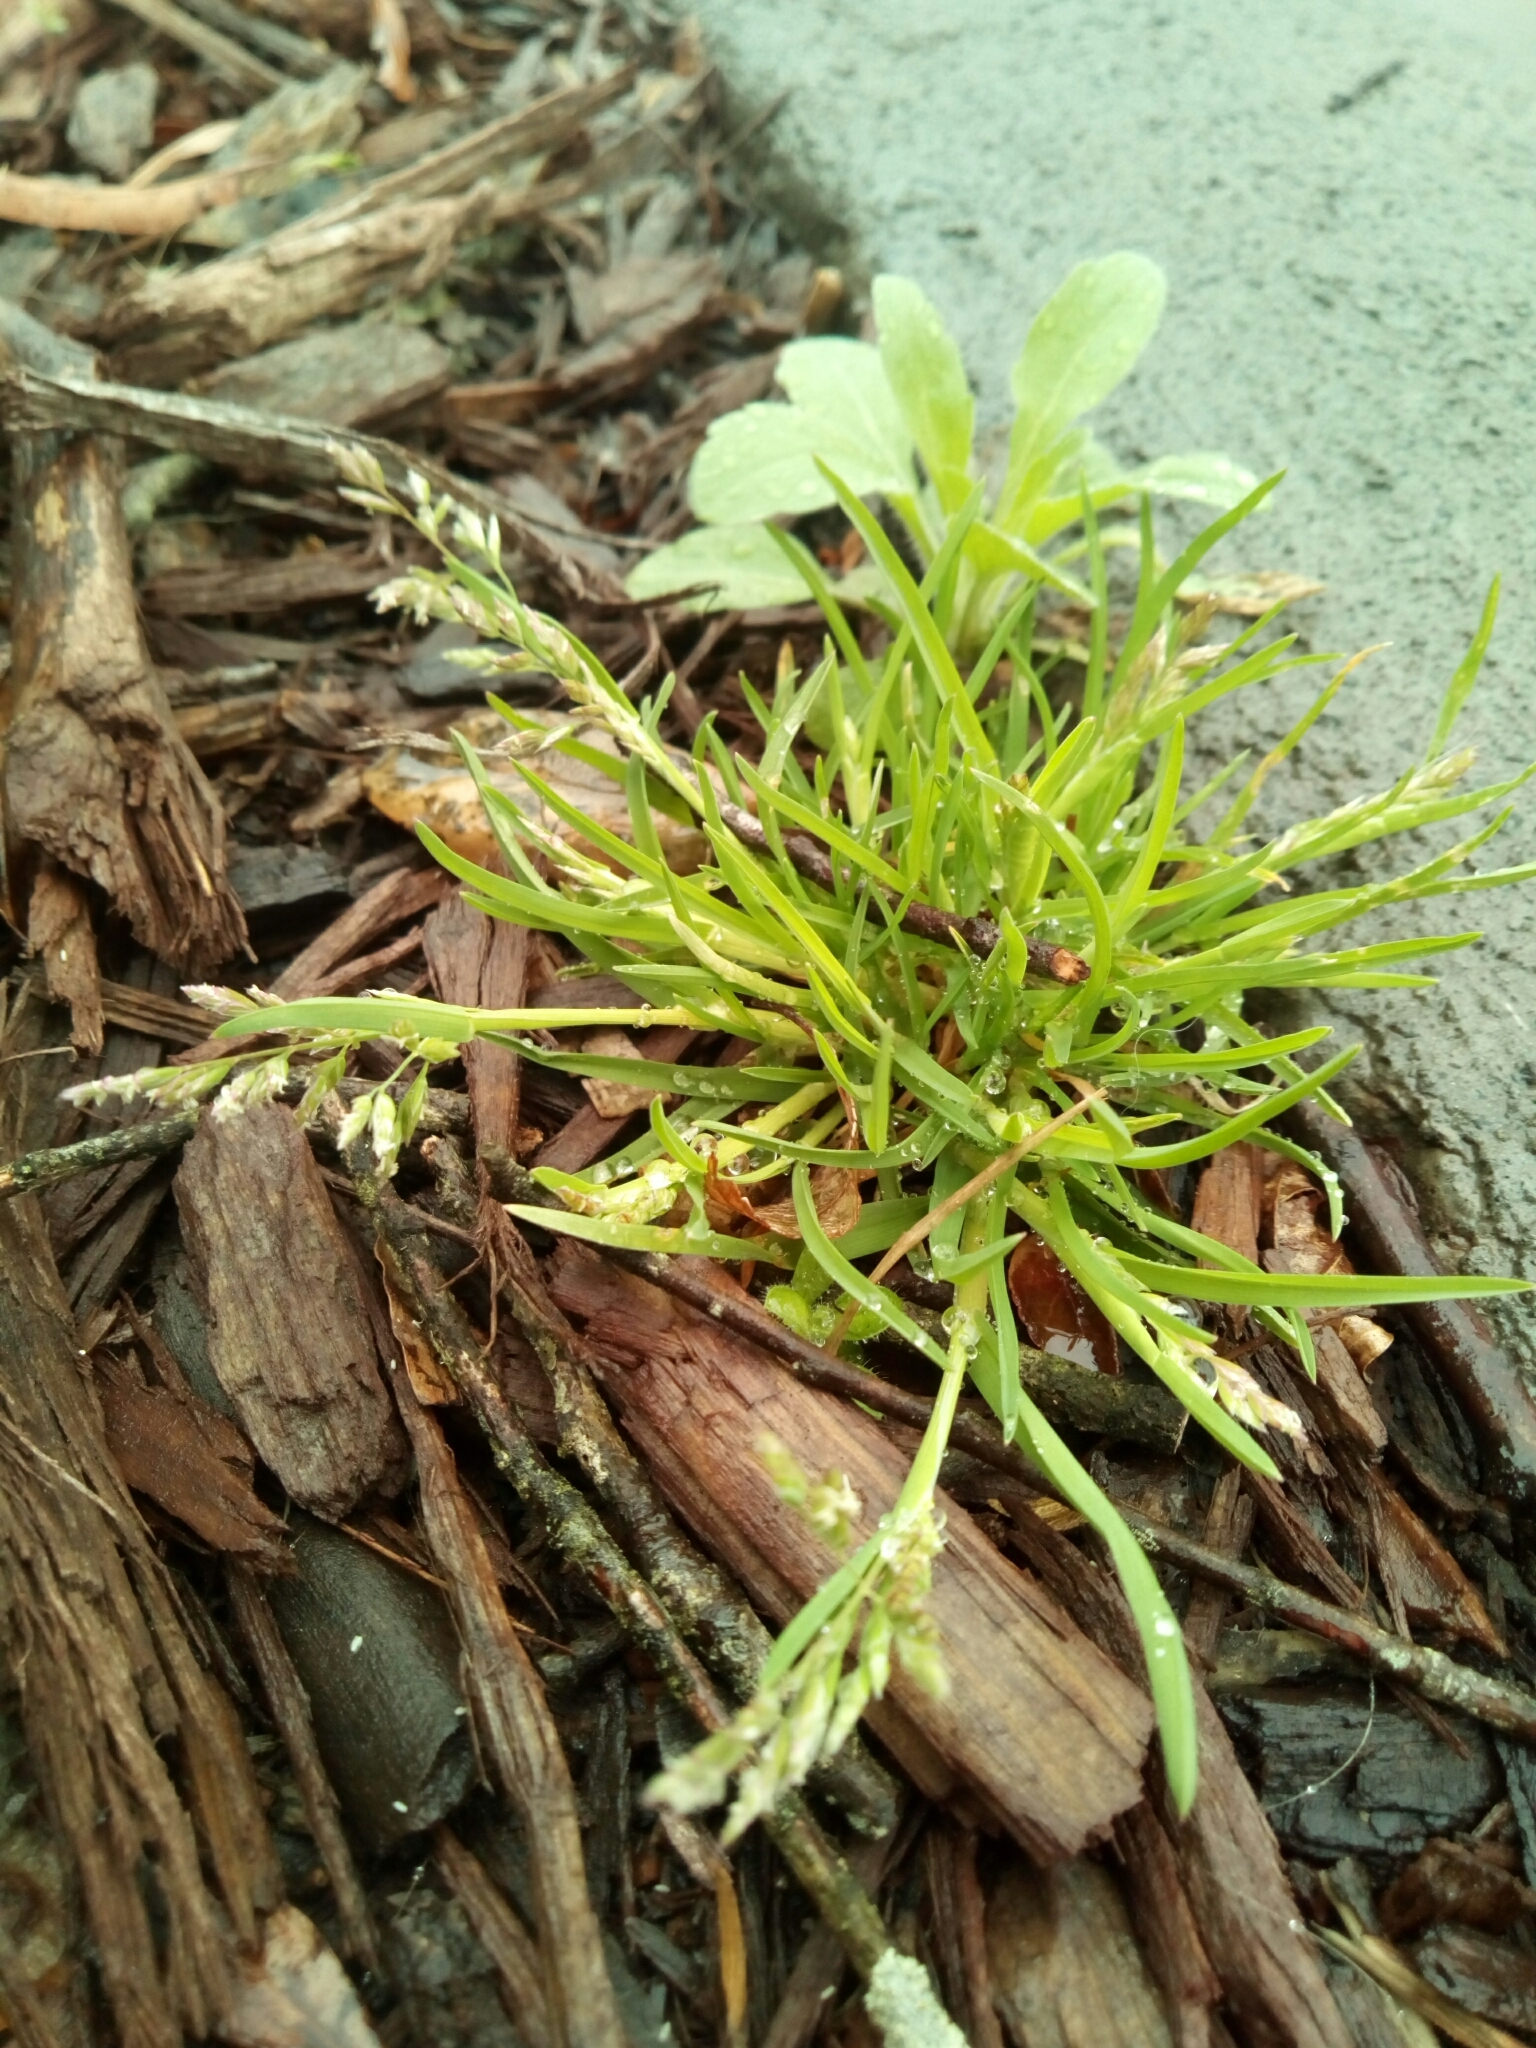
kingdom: Plantae
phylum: Tracheophyta
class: Liliopsida
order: Poales
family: Poaceae
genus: Poa
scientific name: Poa annua
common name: Annual bluegrass
